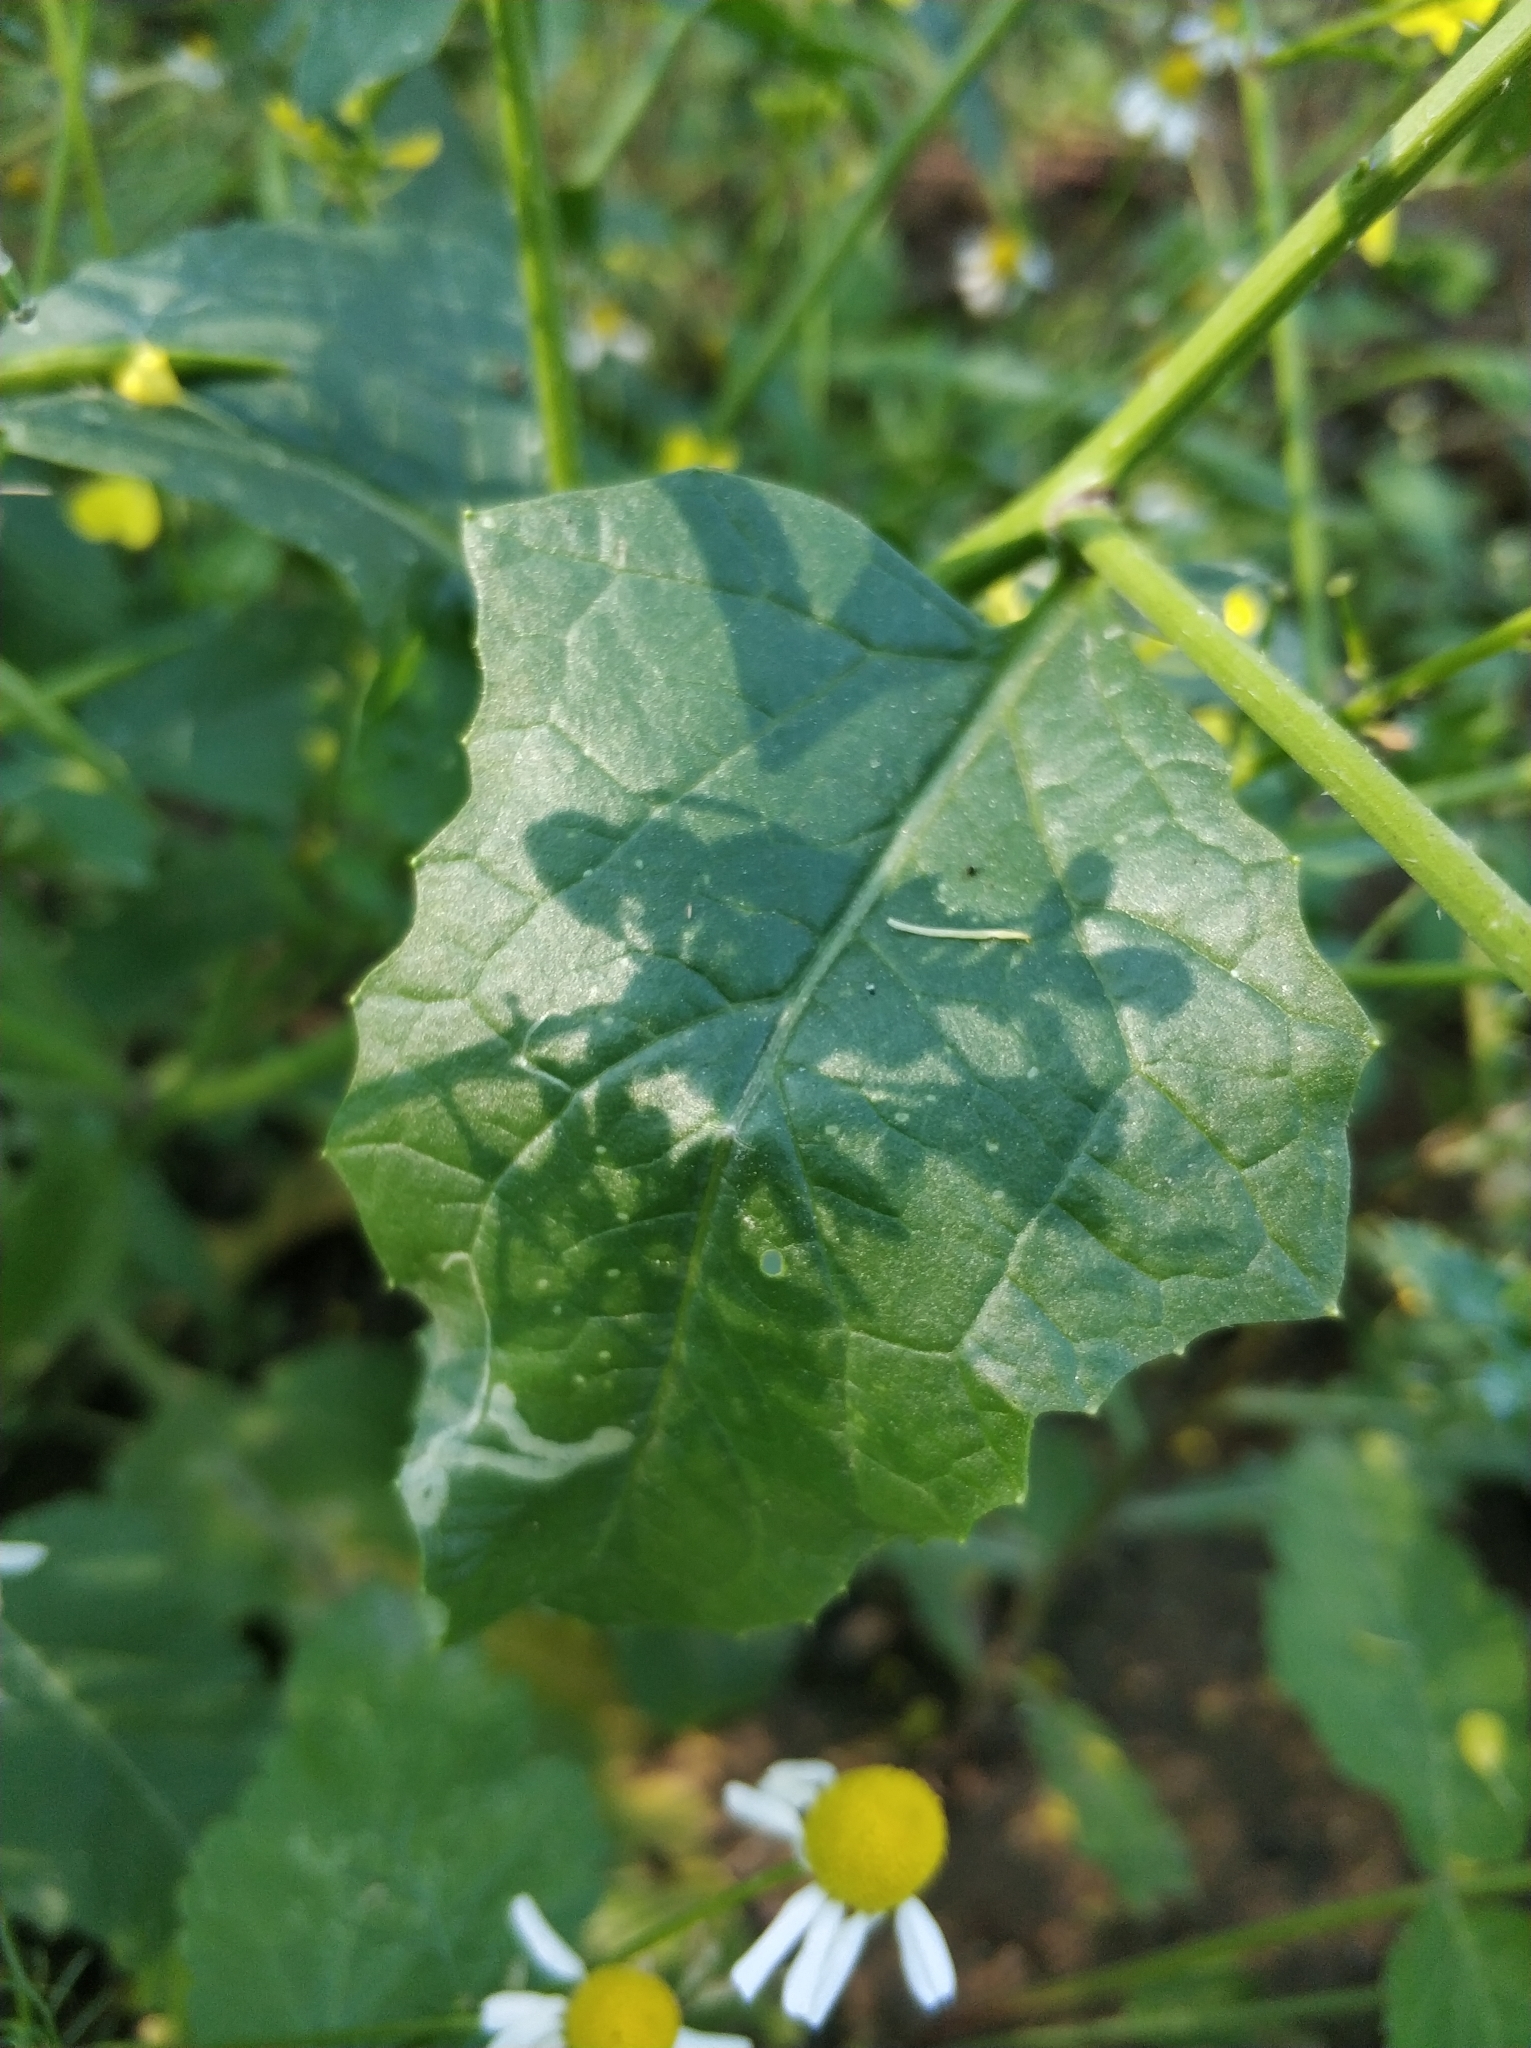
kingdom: Plantae
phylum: Tracheophyta
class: Magnoliopsida
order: Brassicales
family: Brassicaceae
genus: Sinapis
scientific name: Sinapis arvensis
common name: Charlock
